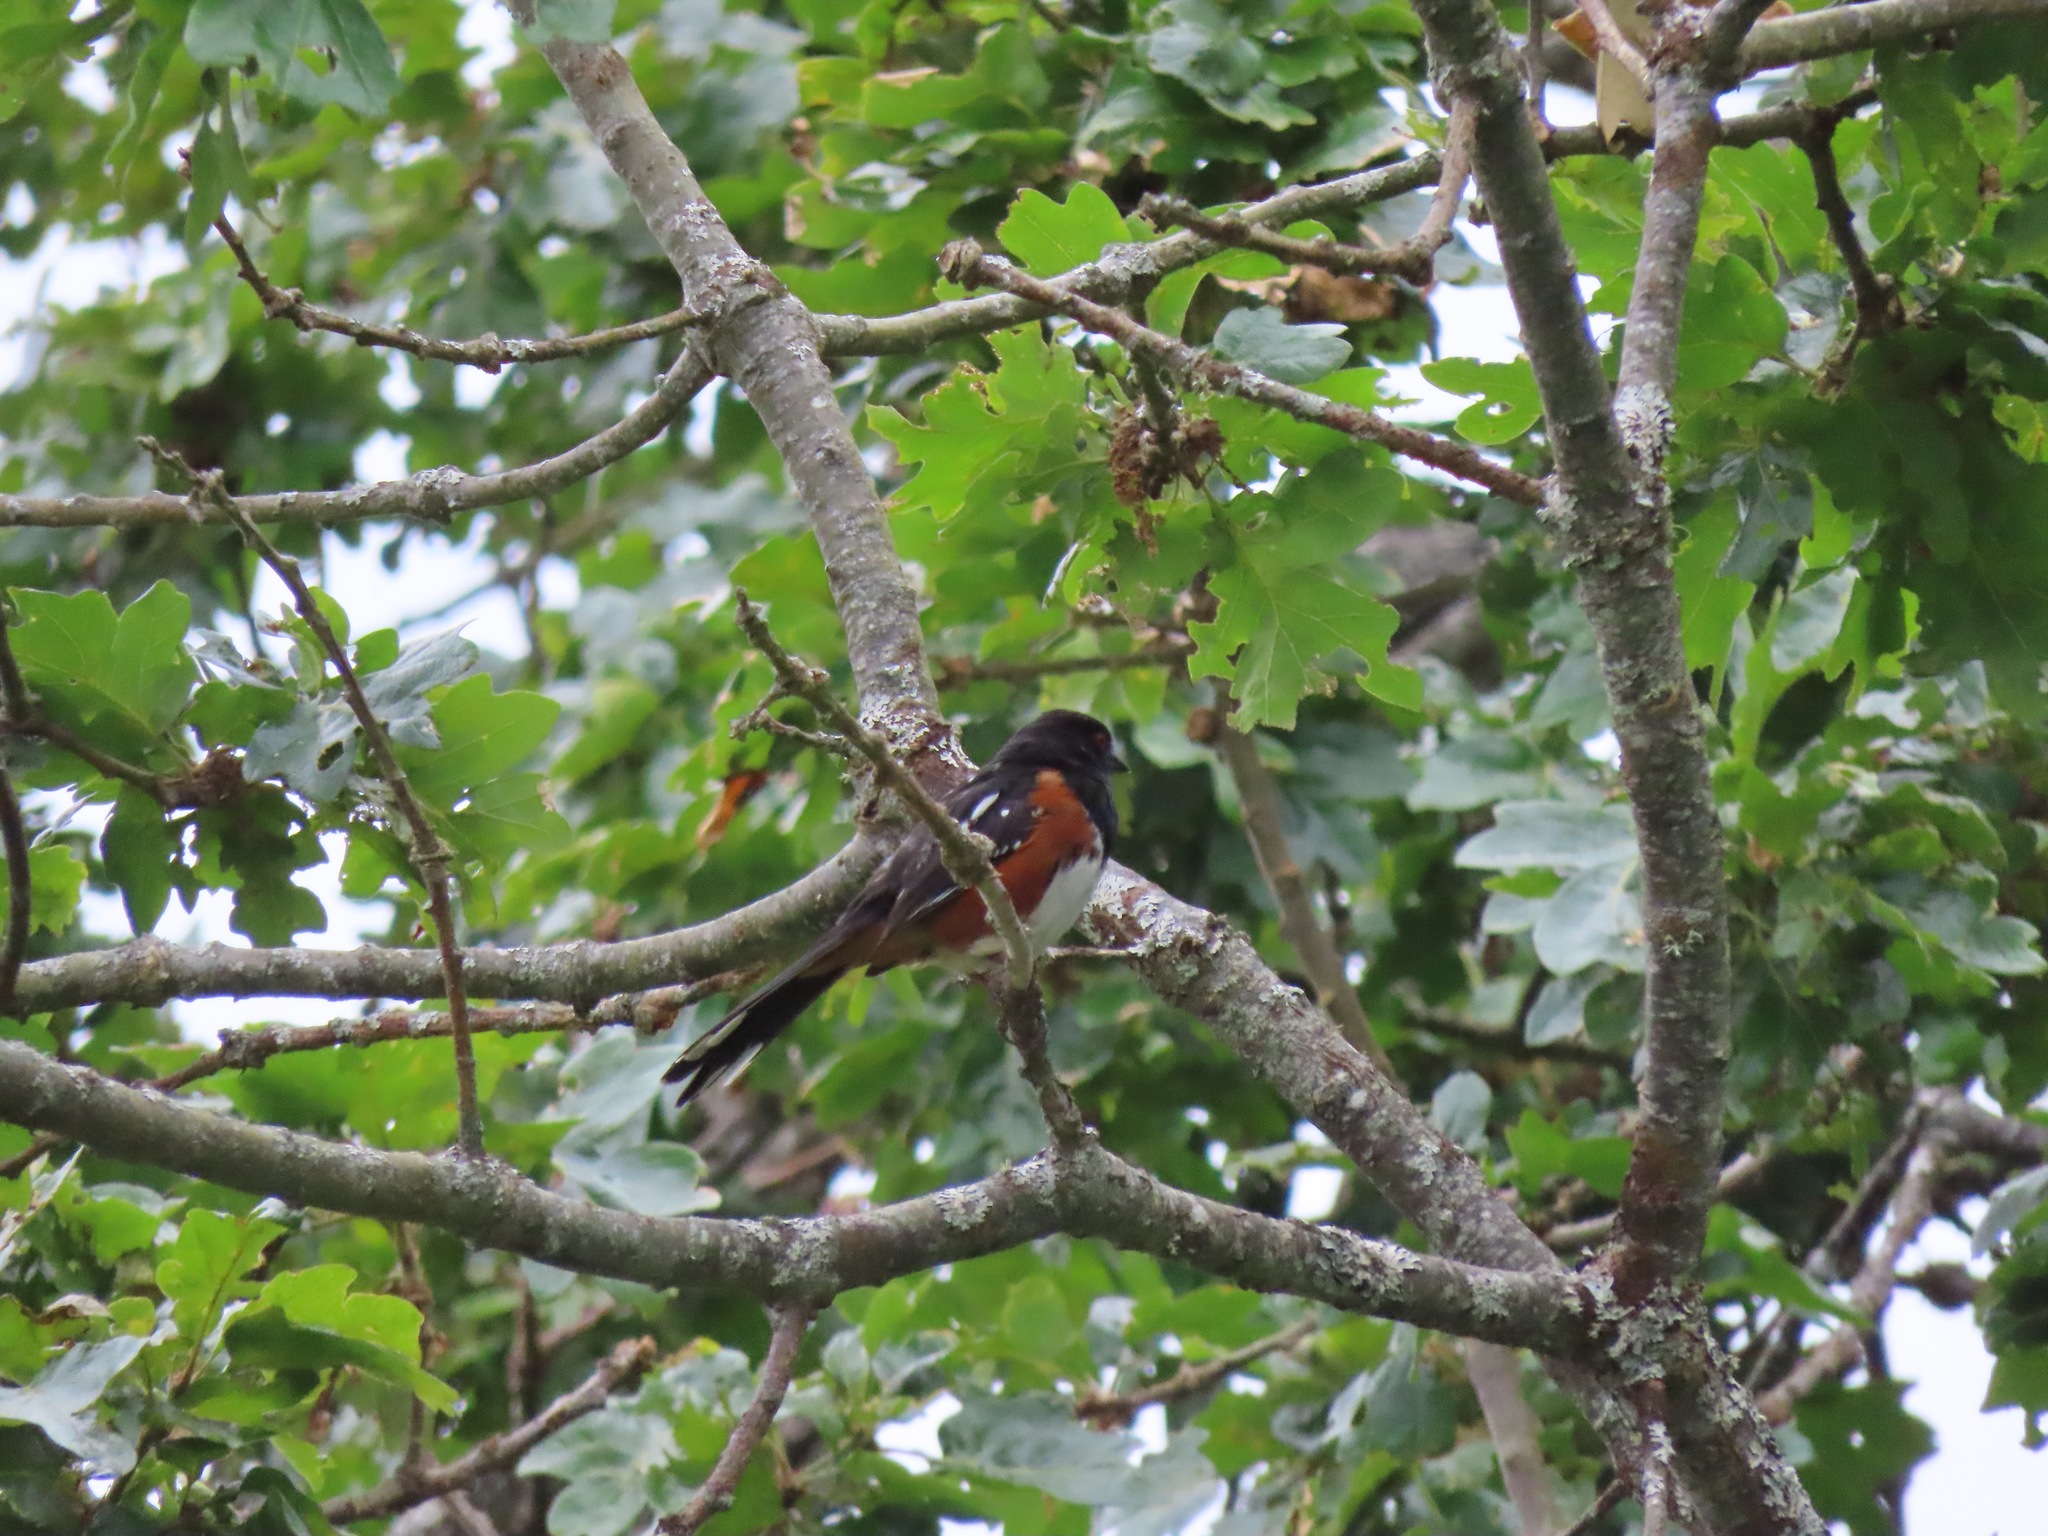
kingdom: Animalia
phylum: Chordata
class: Aves
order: Passeriformes
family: Passerellidae
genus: Pipilo
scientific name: Pipilo maculatus
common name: Spotted towhee
